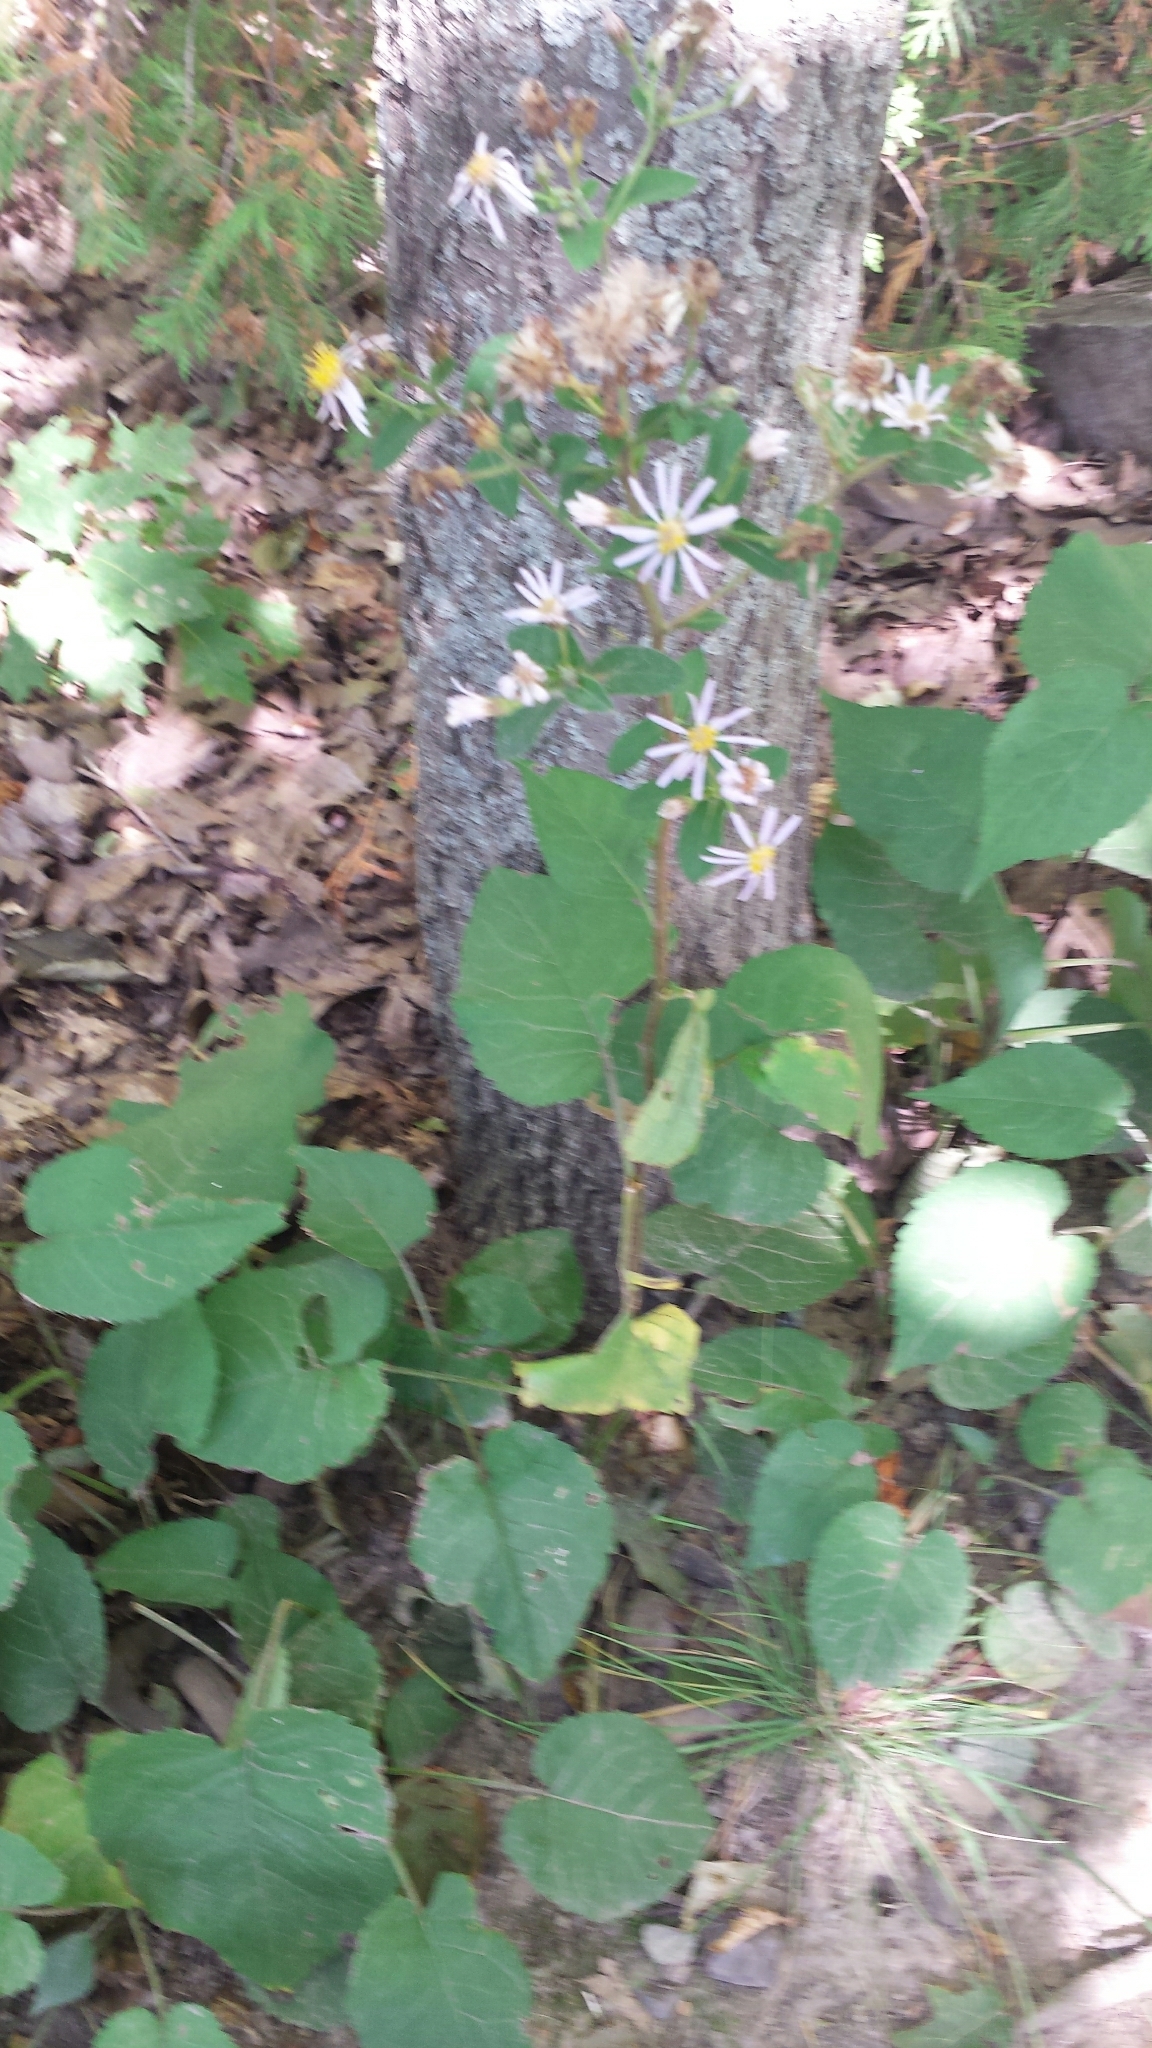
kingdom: Plantae
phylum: Tracheophyta
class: Magnoliopsida
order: Asterales
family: Asteraceae
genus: Eurybia
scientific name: Eurybia macrophylla
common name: Big-leaved aster
